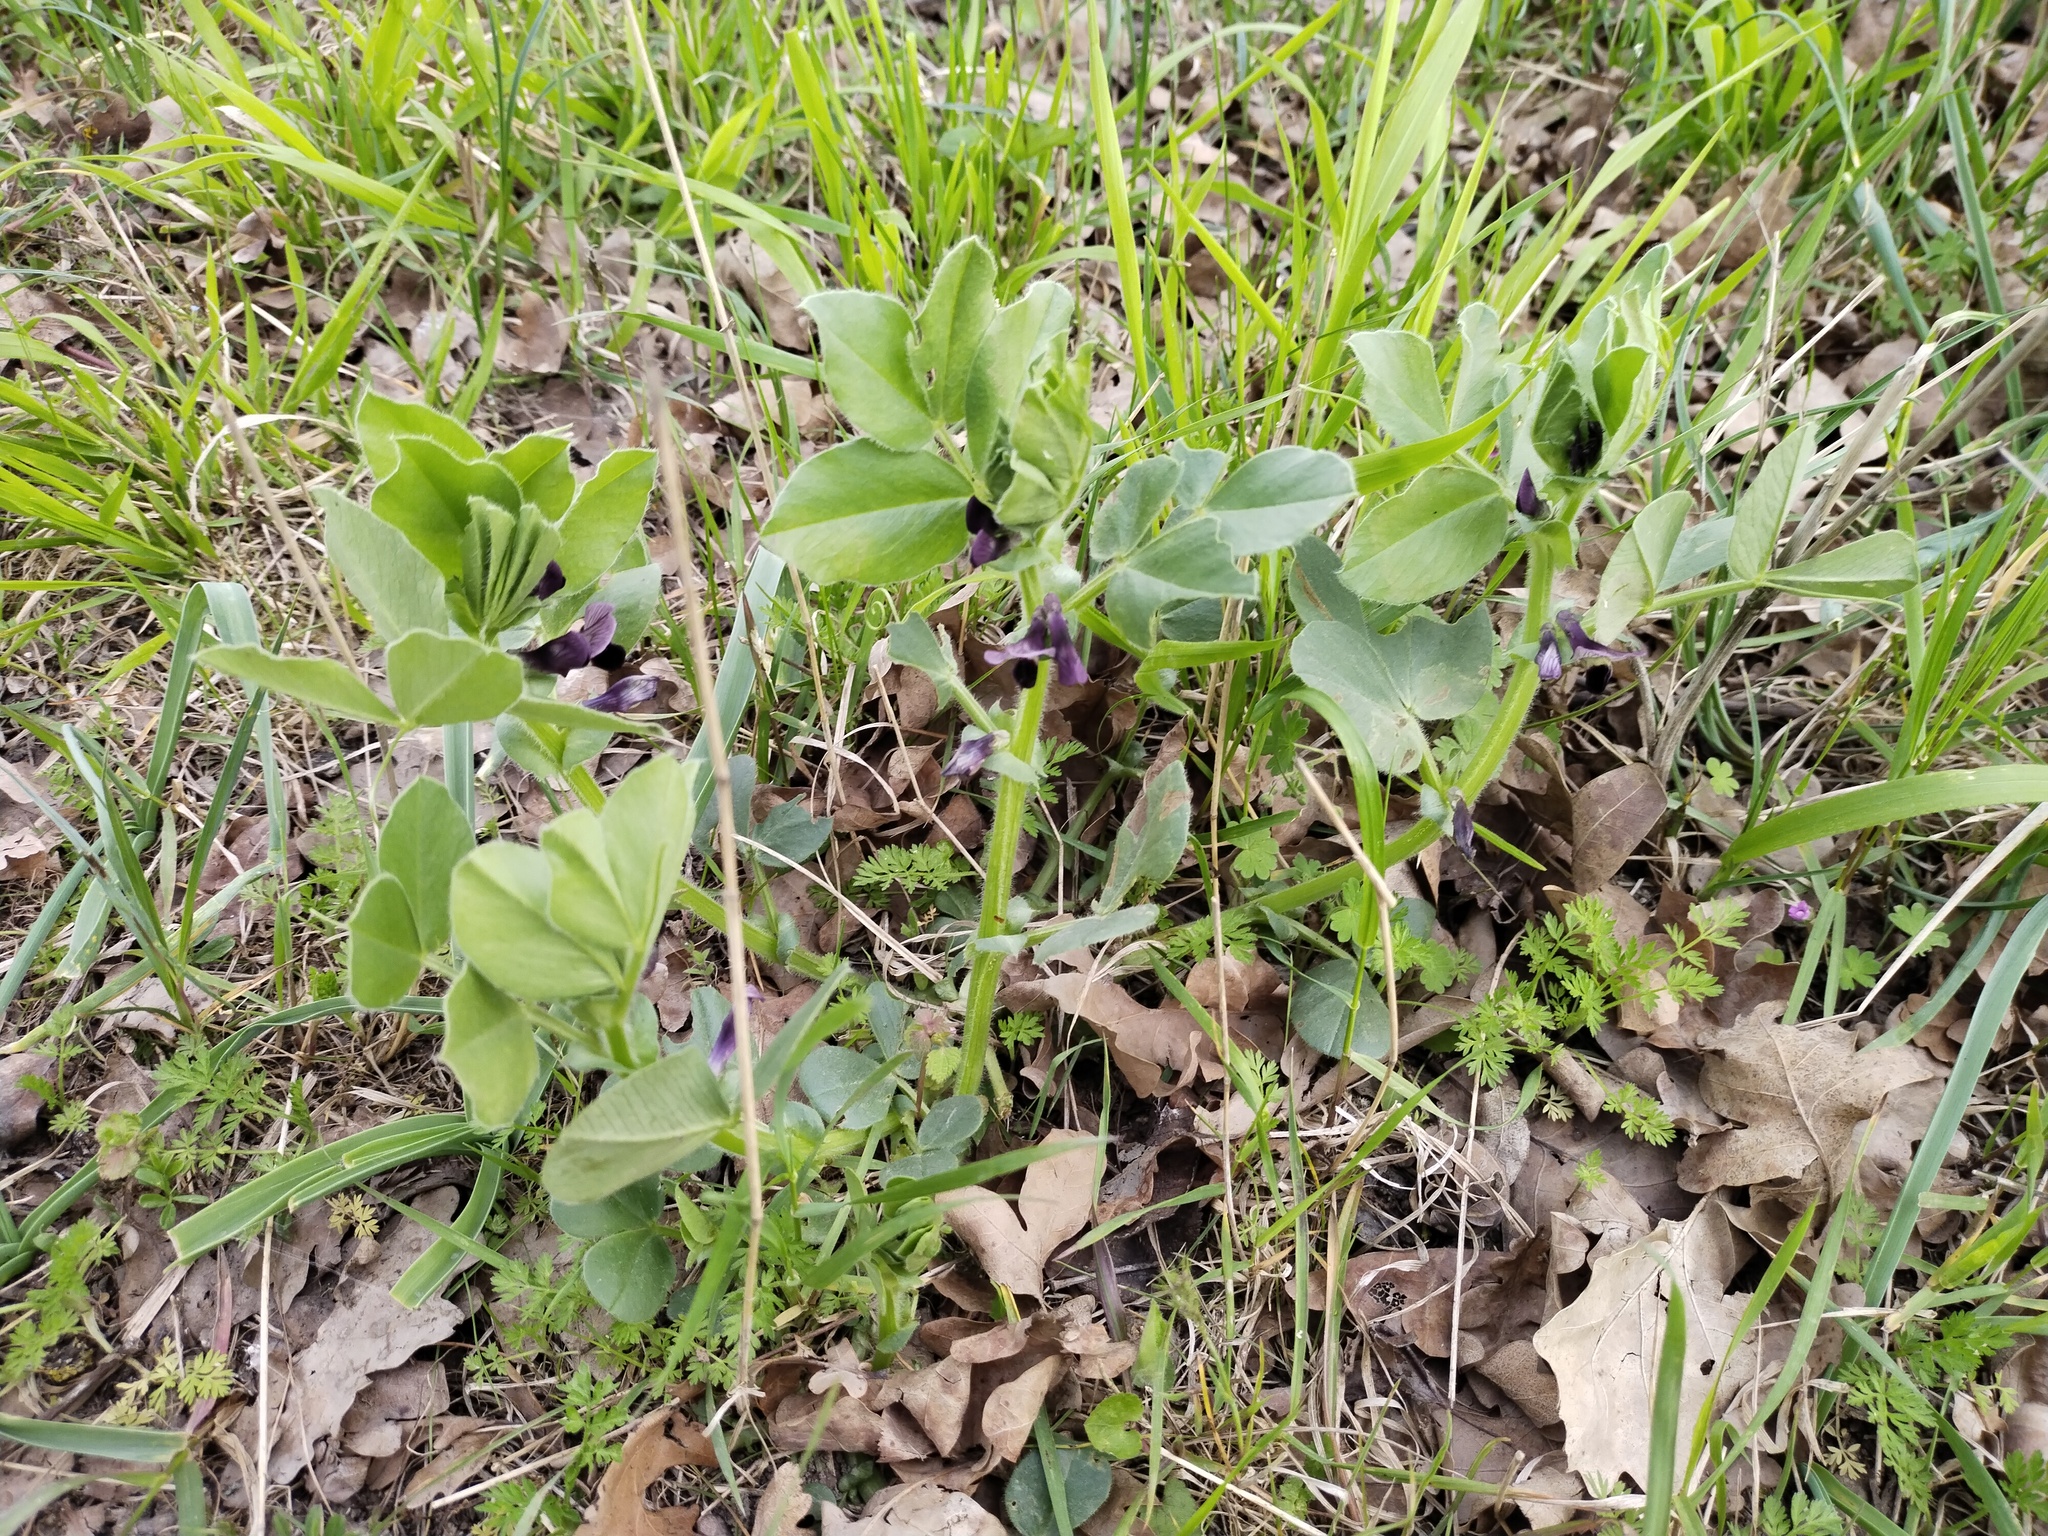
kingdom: Plantae
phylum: Tracheophyta
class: Magnoliopsida
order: Fabales
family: Fabaceae
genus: Vicia
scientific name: Vicia narbonensis
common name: Narbonne vetch
